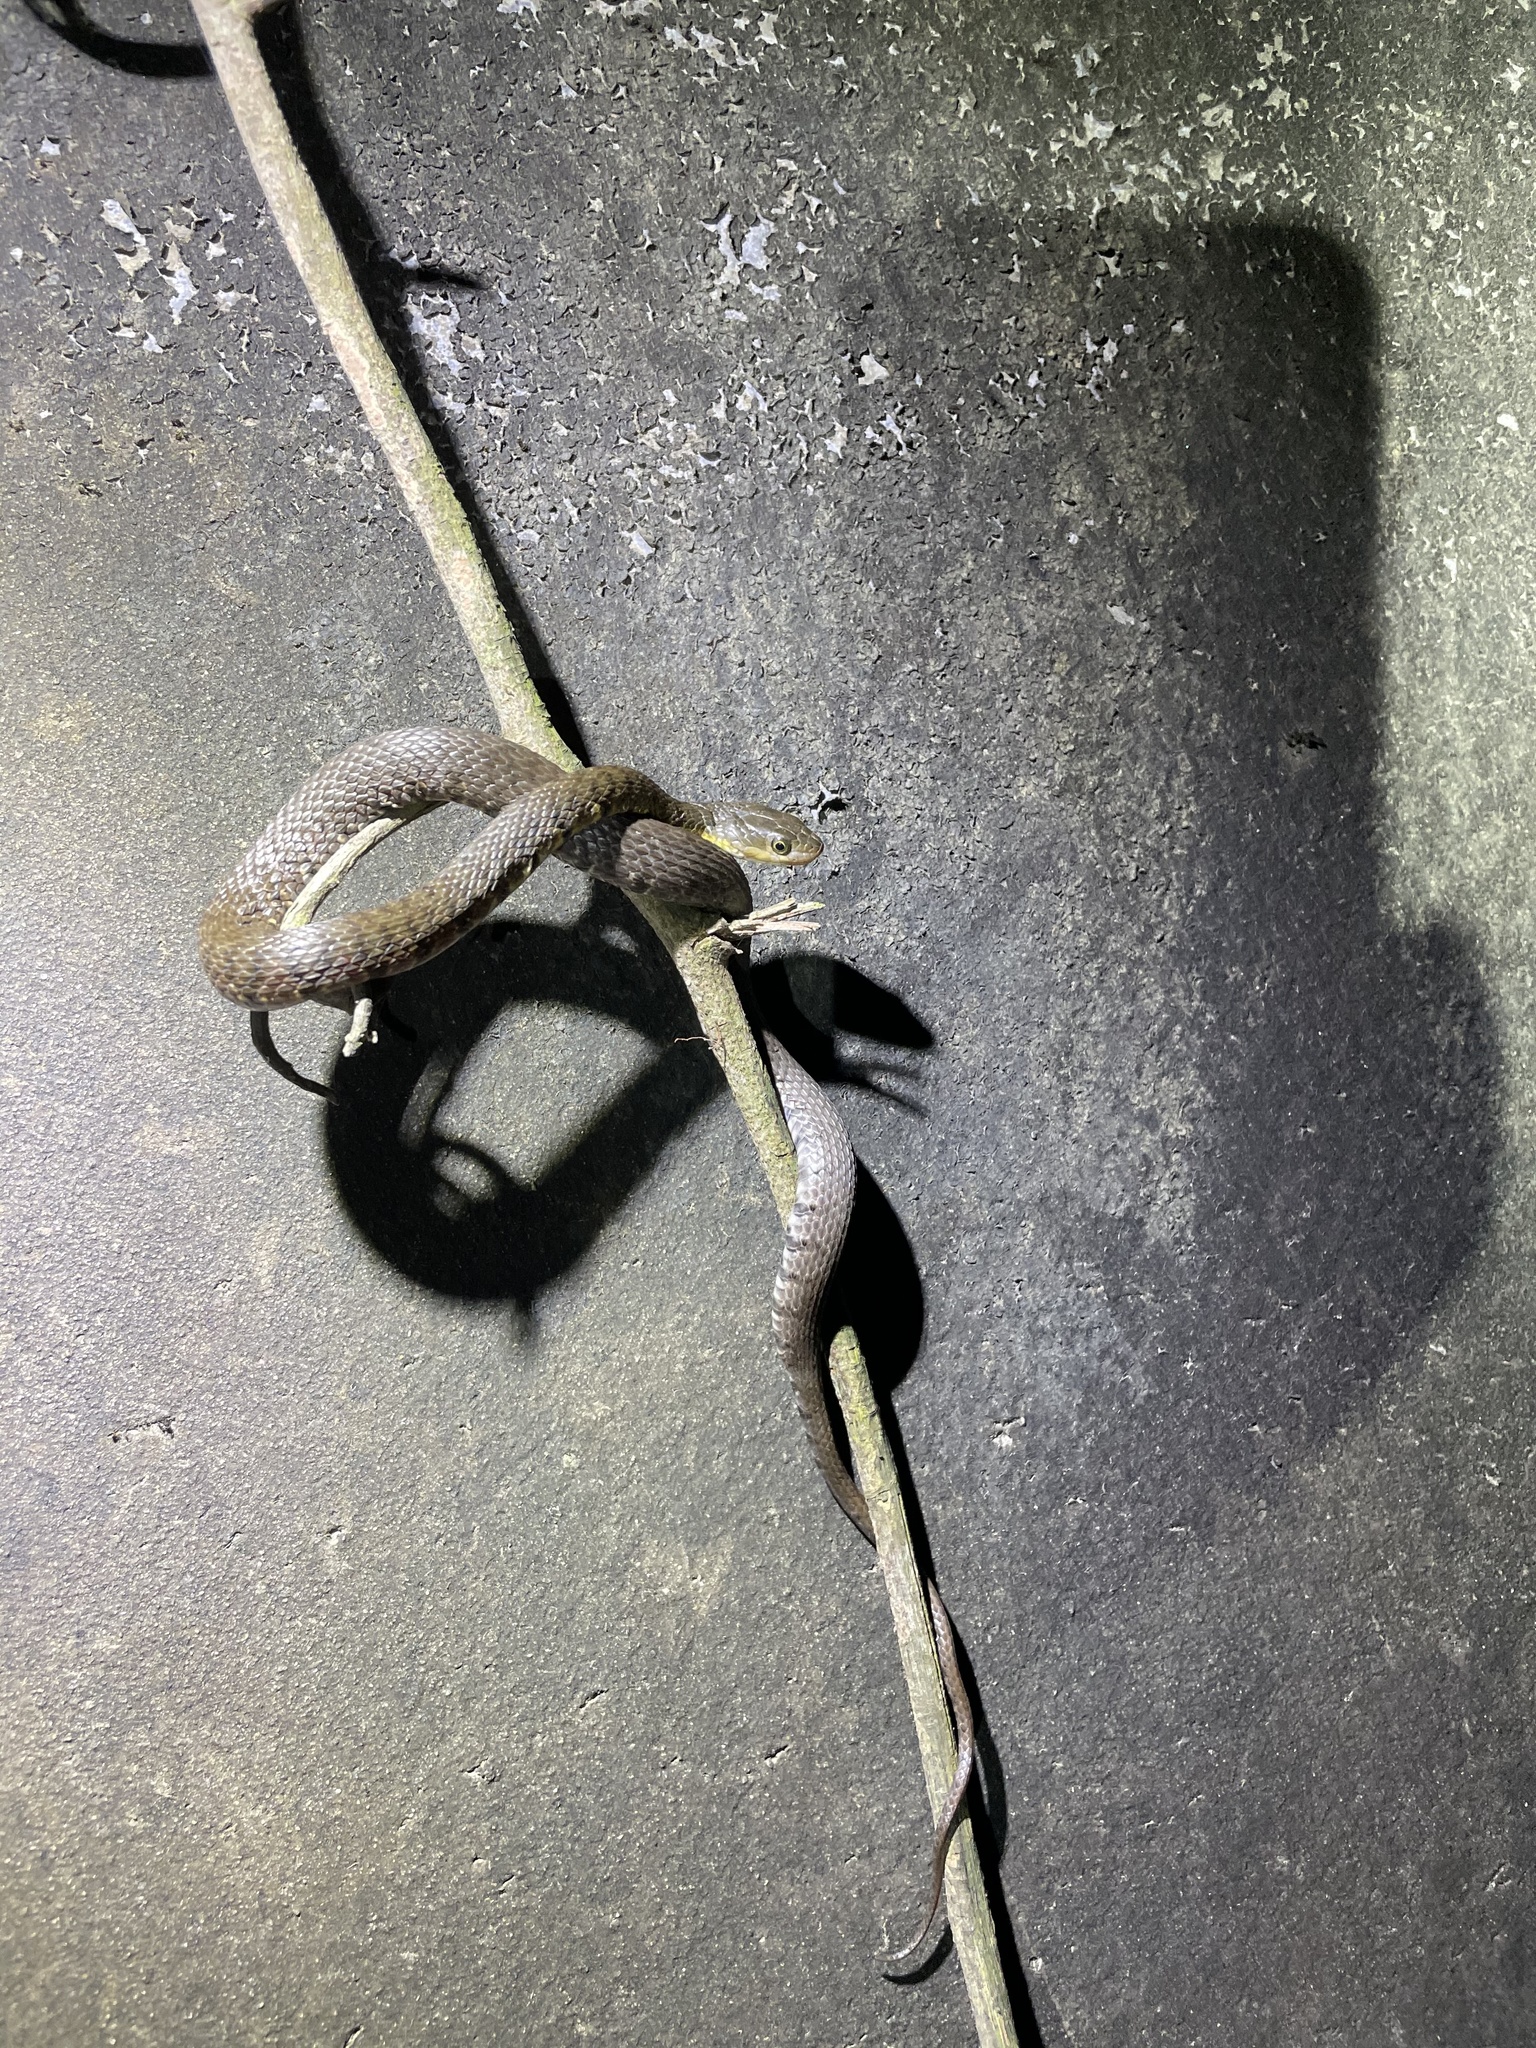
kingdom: Animalia
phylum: Chordata
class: Squamata
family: Colubridae
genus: Trimerodytes
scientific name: Trimerodytes percarinatus
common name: Eastern water snake
